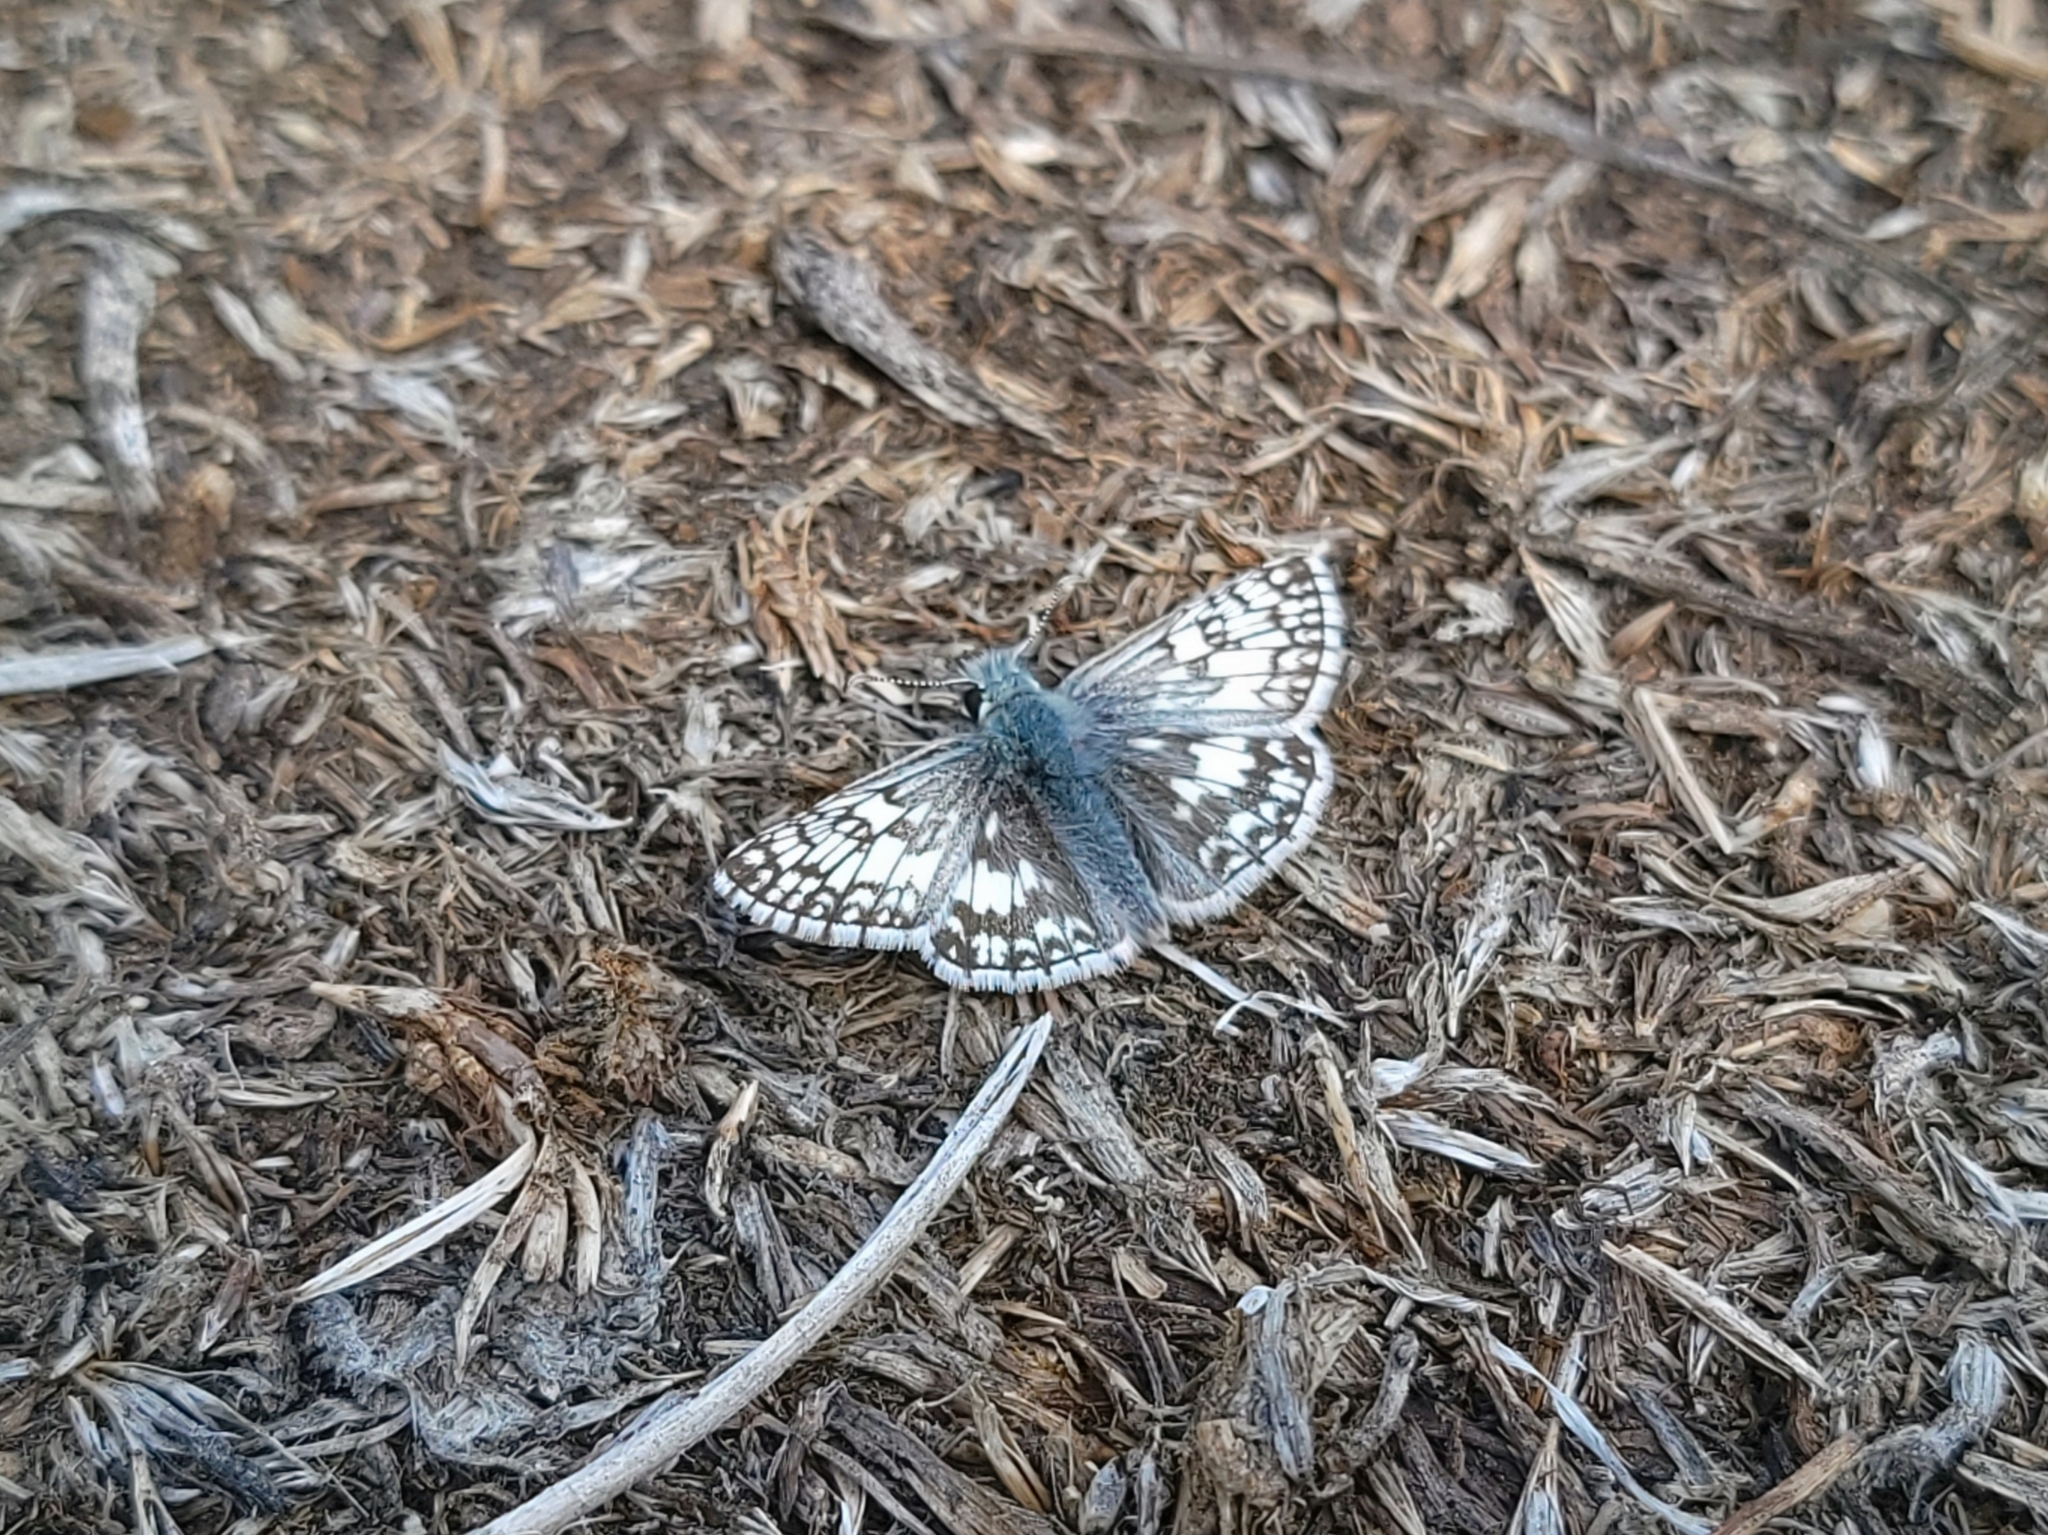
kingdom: Animalia
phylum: Arthropoda
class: Insecta
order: Lepidoptera
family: Hesperiidae
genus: Burnsius
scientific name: Burnsius communis
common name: Common checkered-skipper
